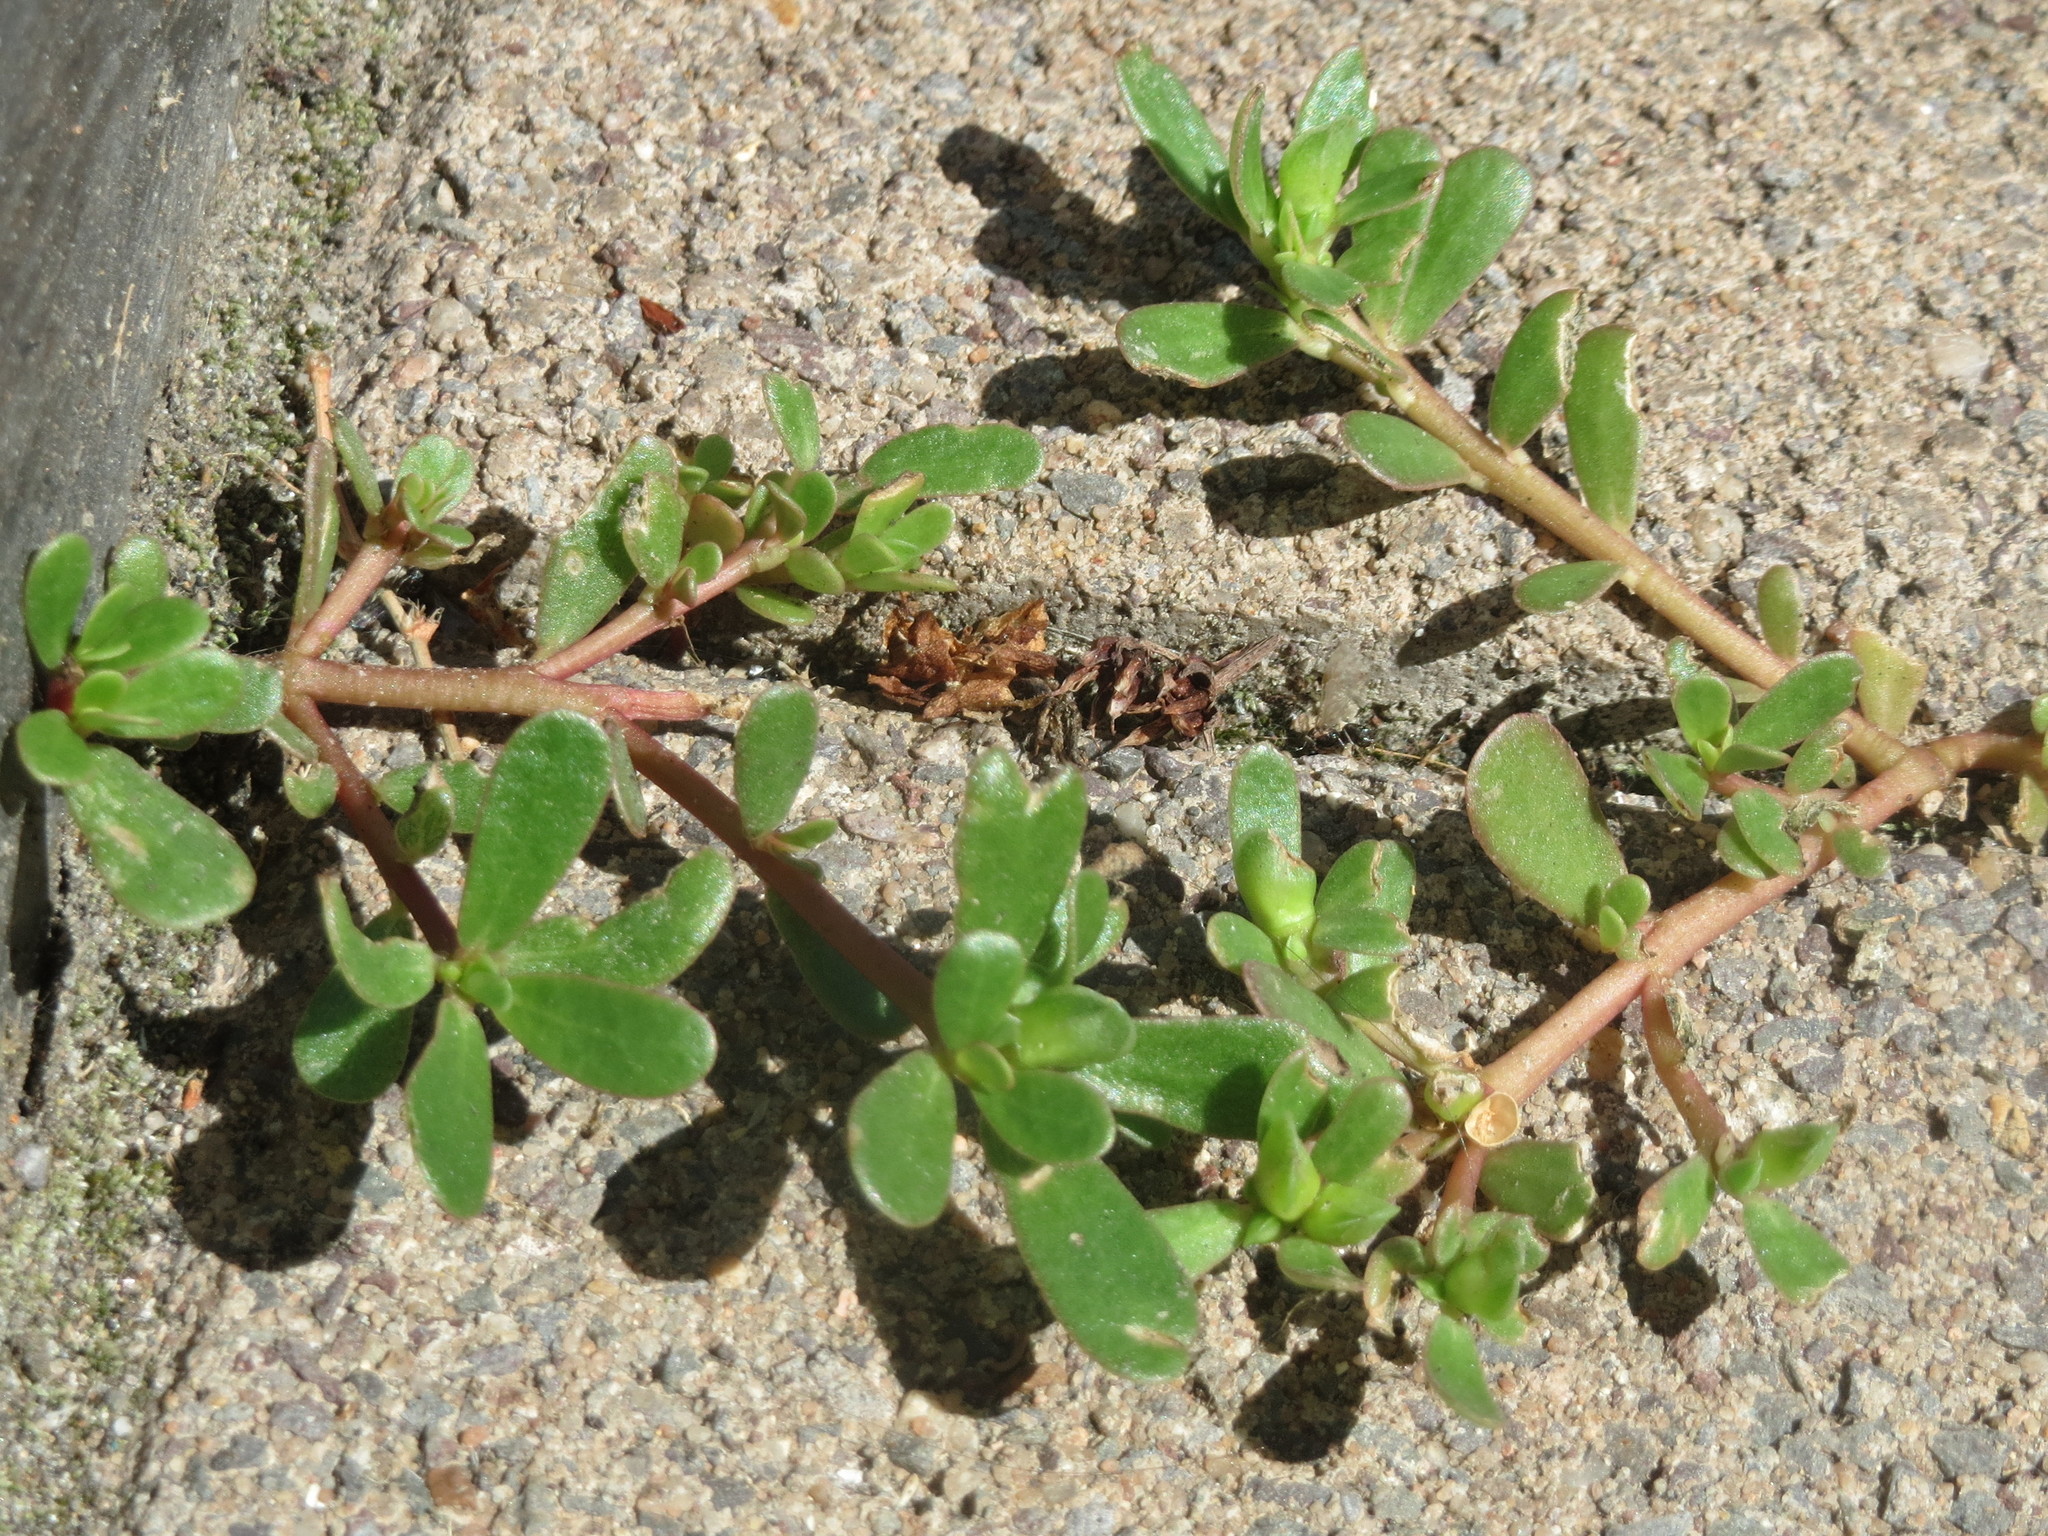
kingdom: Plantae
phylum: Tracheophyta
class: Magnoliopsida
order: Caryophyllales
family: Portulacaceae
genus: Portulaca
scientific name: Portulaca oleracea
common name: Common purslane
